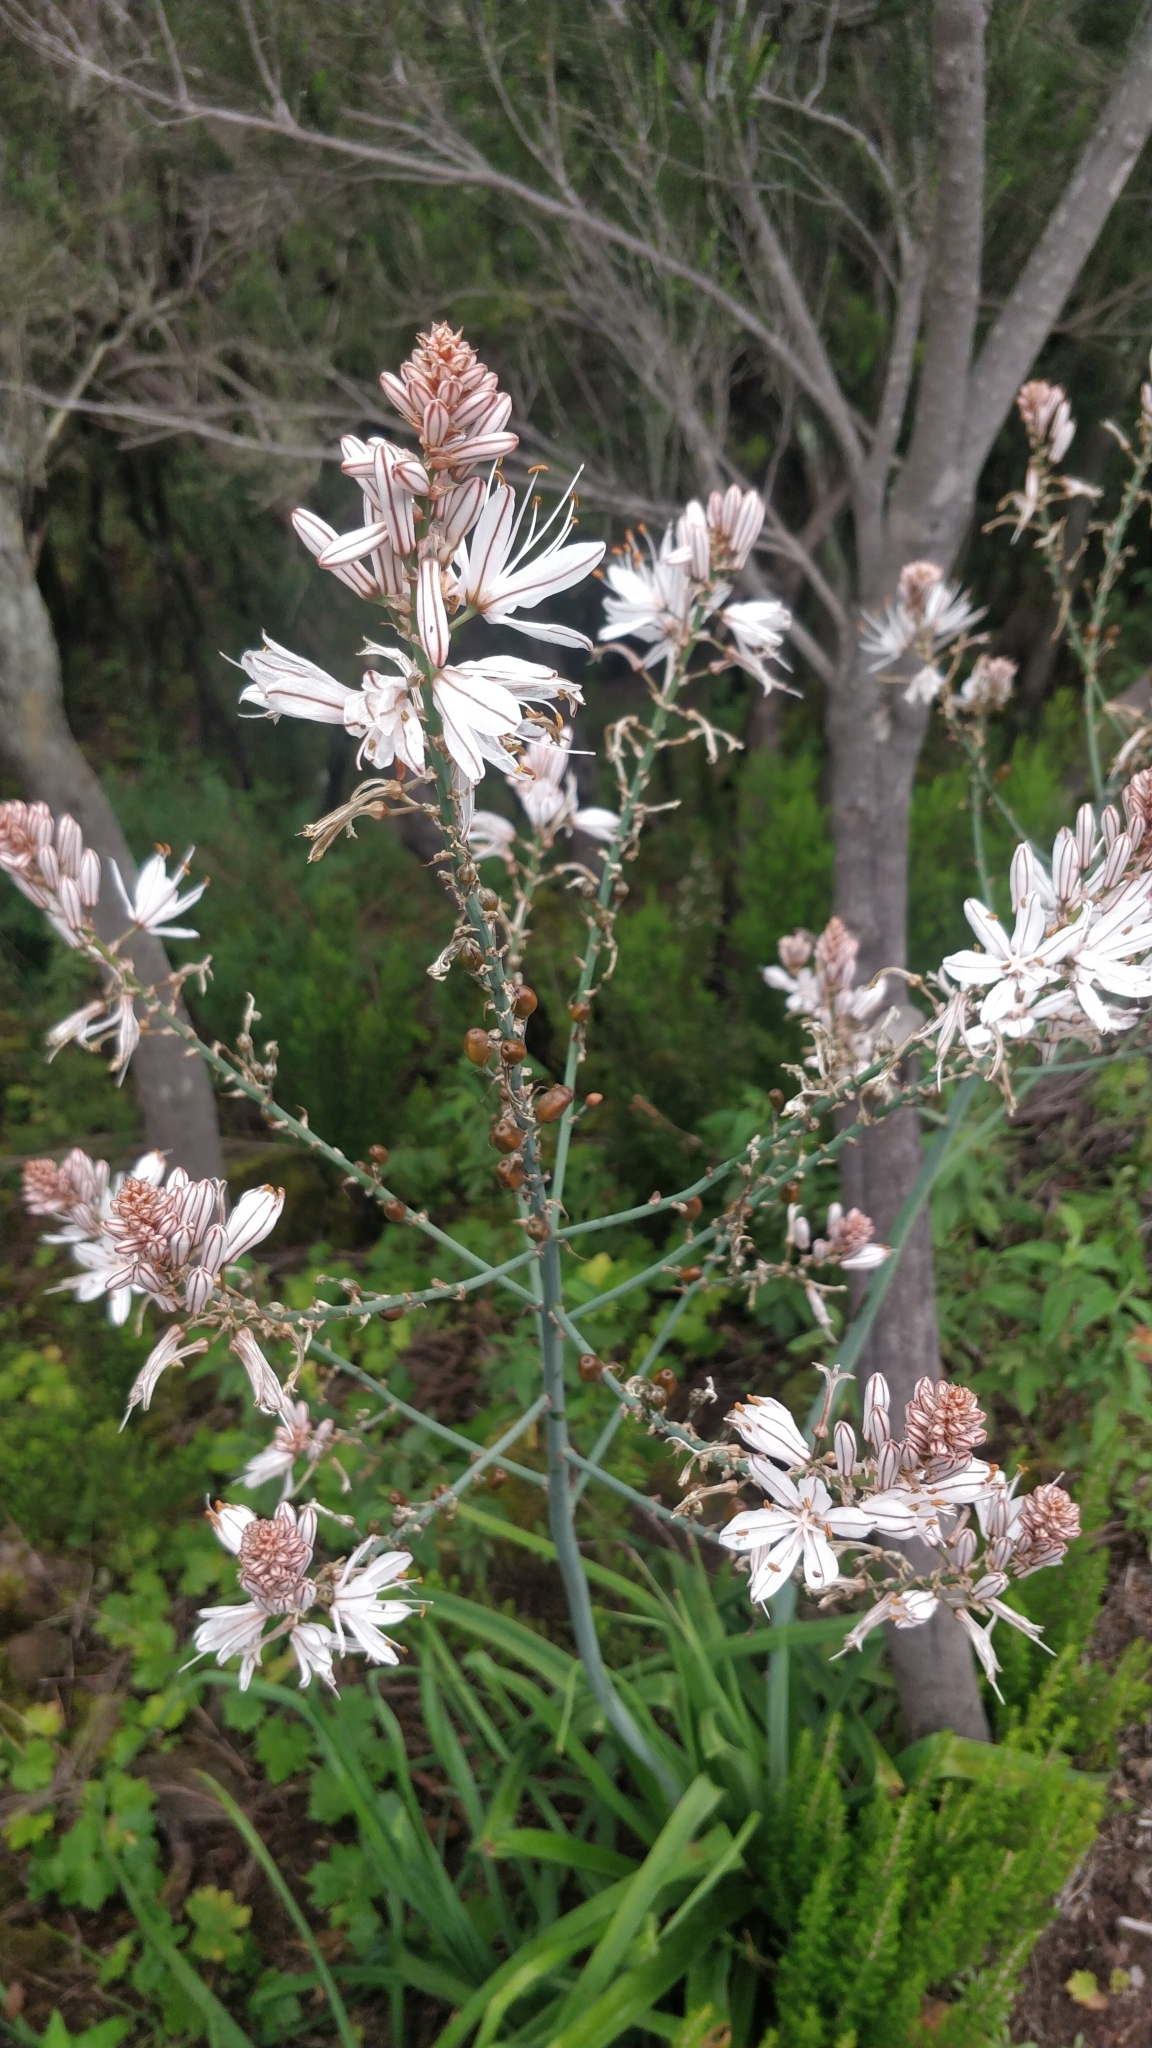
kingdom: Plantae
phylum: Tracheophyta
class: Liliopsida
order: Asparagales
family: Asphodelaceae
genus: Asphodelus
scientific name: Asphodelus ramosus
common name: Silverrod
